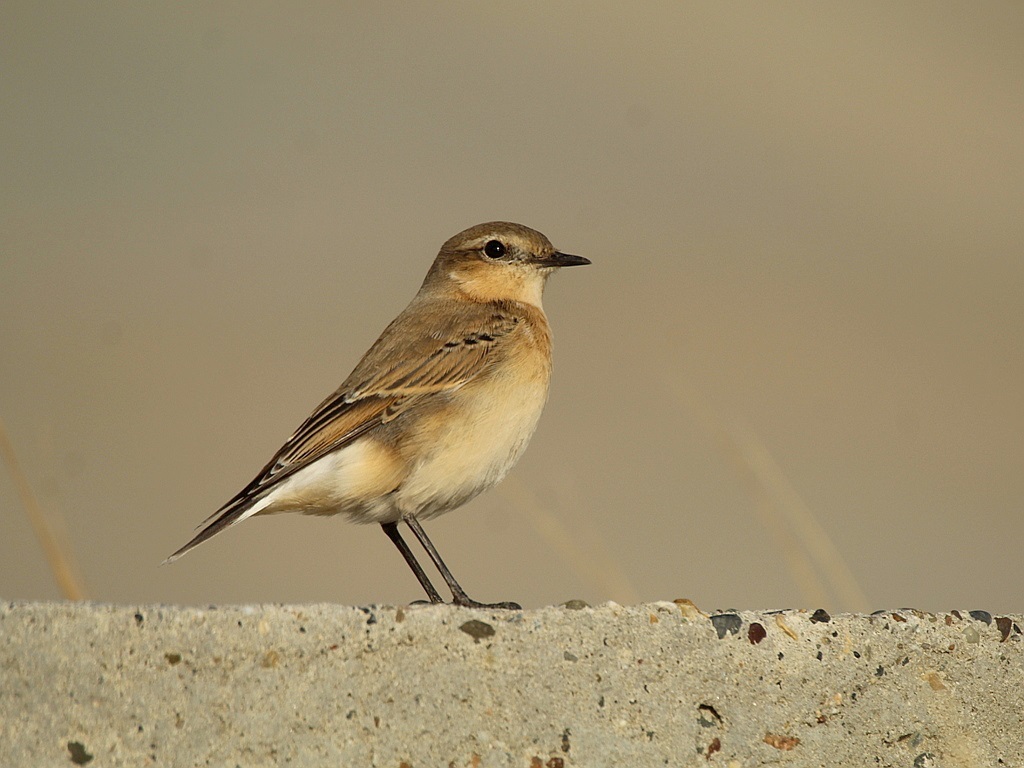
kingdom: Animalia
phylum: Chordata
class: Aves
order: Passeriformes
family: Muscicapidae
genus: Oenanthe
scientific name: Oenanthe oenanthe
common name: Northern wheatear
